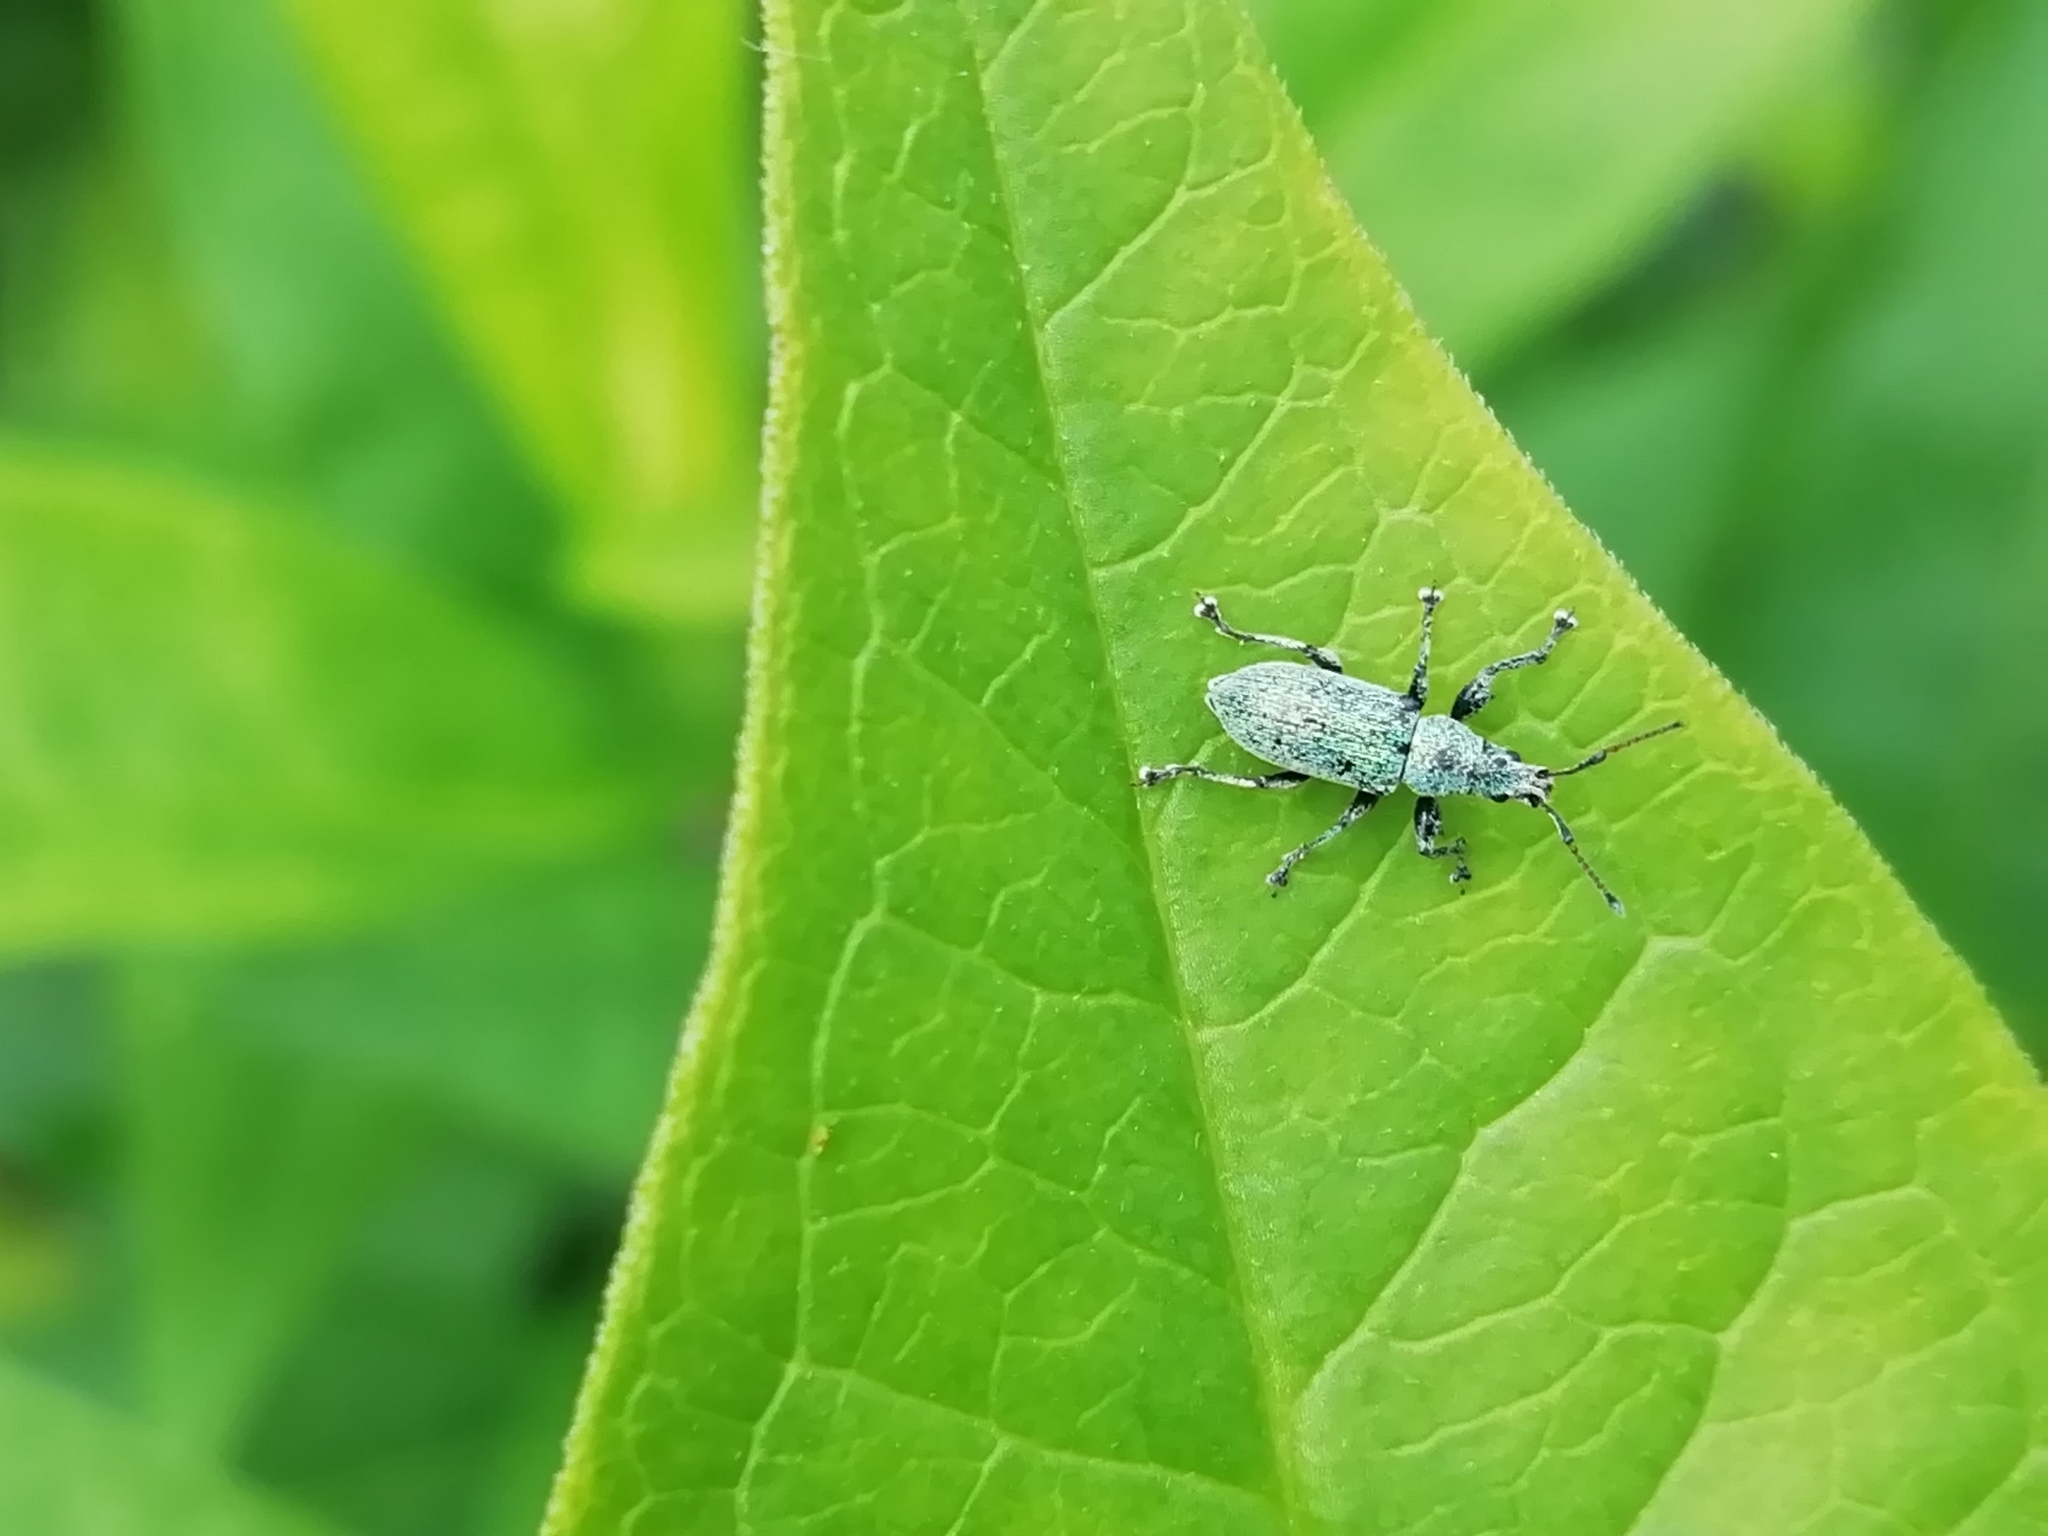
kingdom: Animalia
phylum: Arthropoda
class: Insecta
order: Coleoptera
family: Curculionidae
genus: Phyllobius
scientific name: Phyllobius maculicornis
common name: Green leaf weevil
